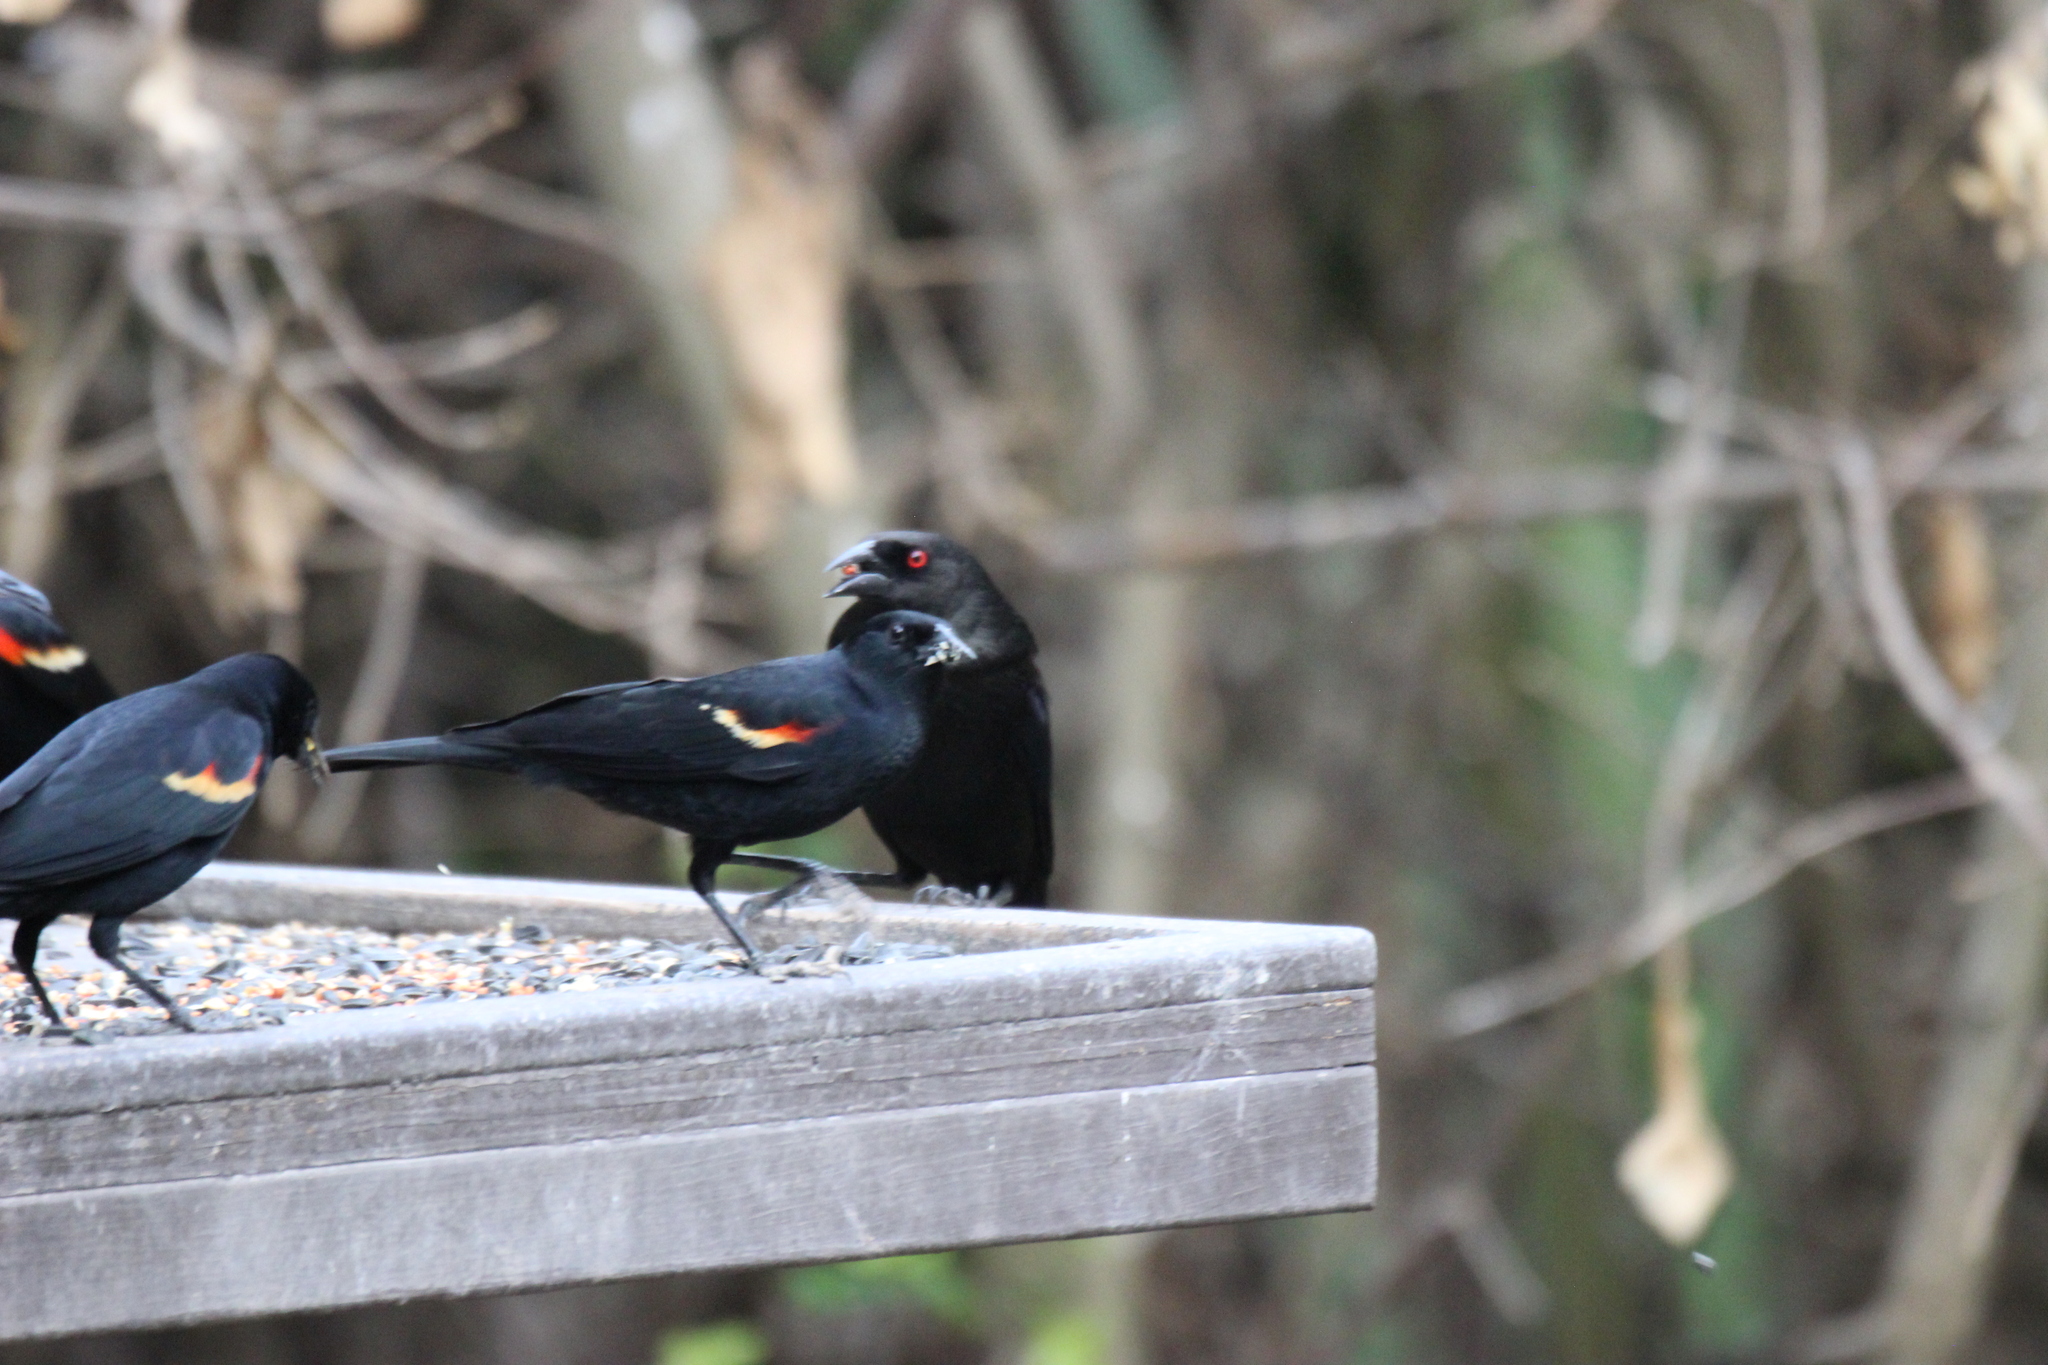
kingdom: Animalia
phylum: Chordata
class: Aves
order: Passeriformes
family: Icteridae
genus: Molothrus
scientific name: Molothrus aeneus
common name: Bronzed cowbird
